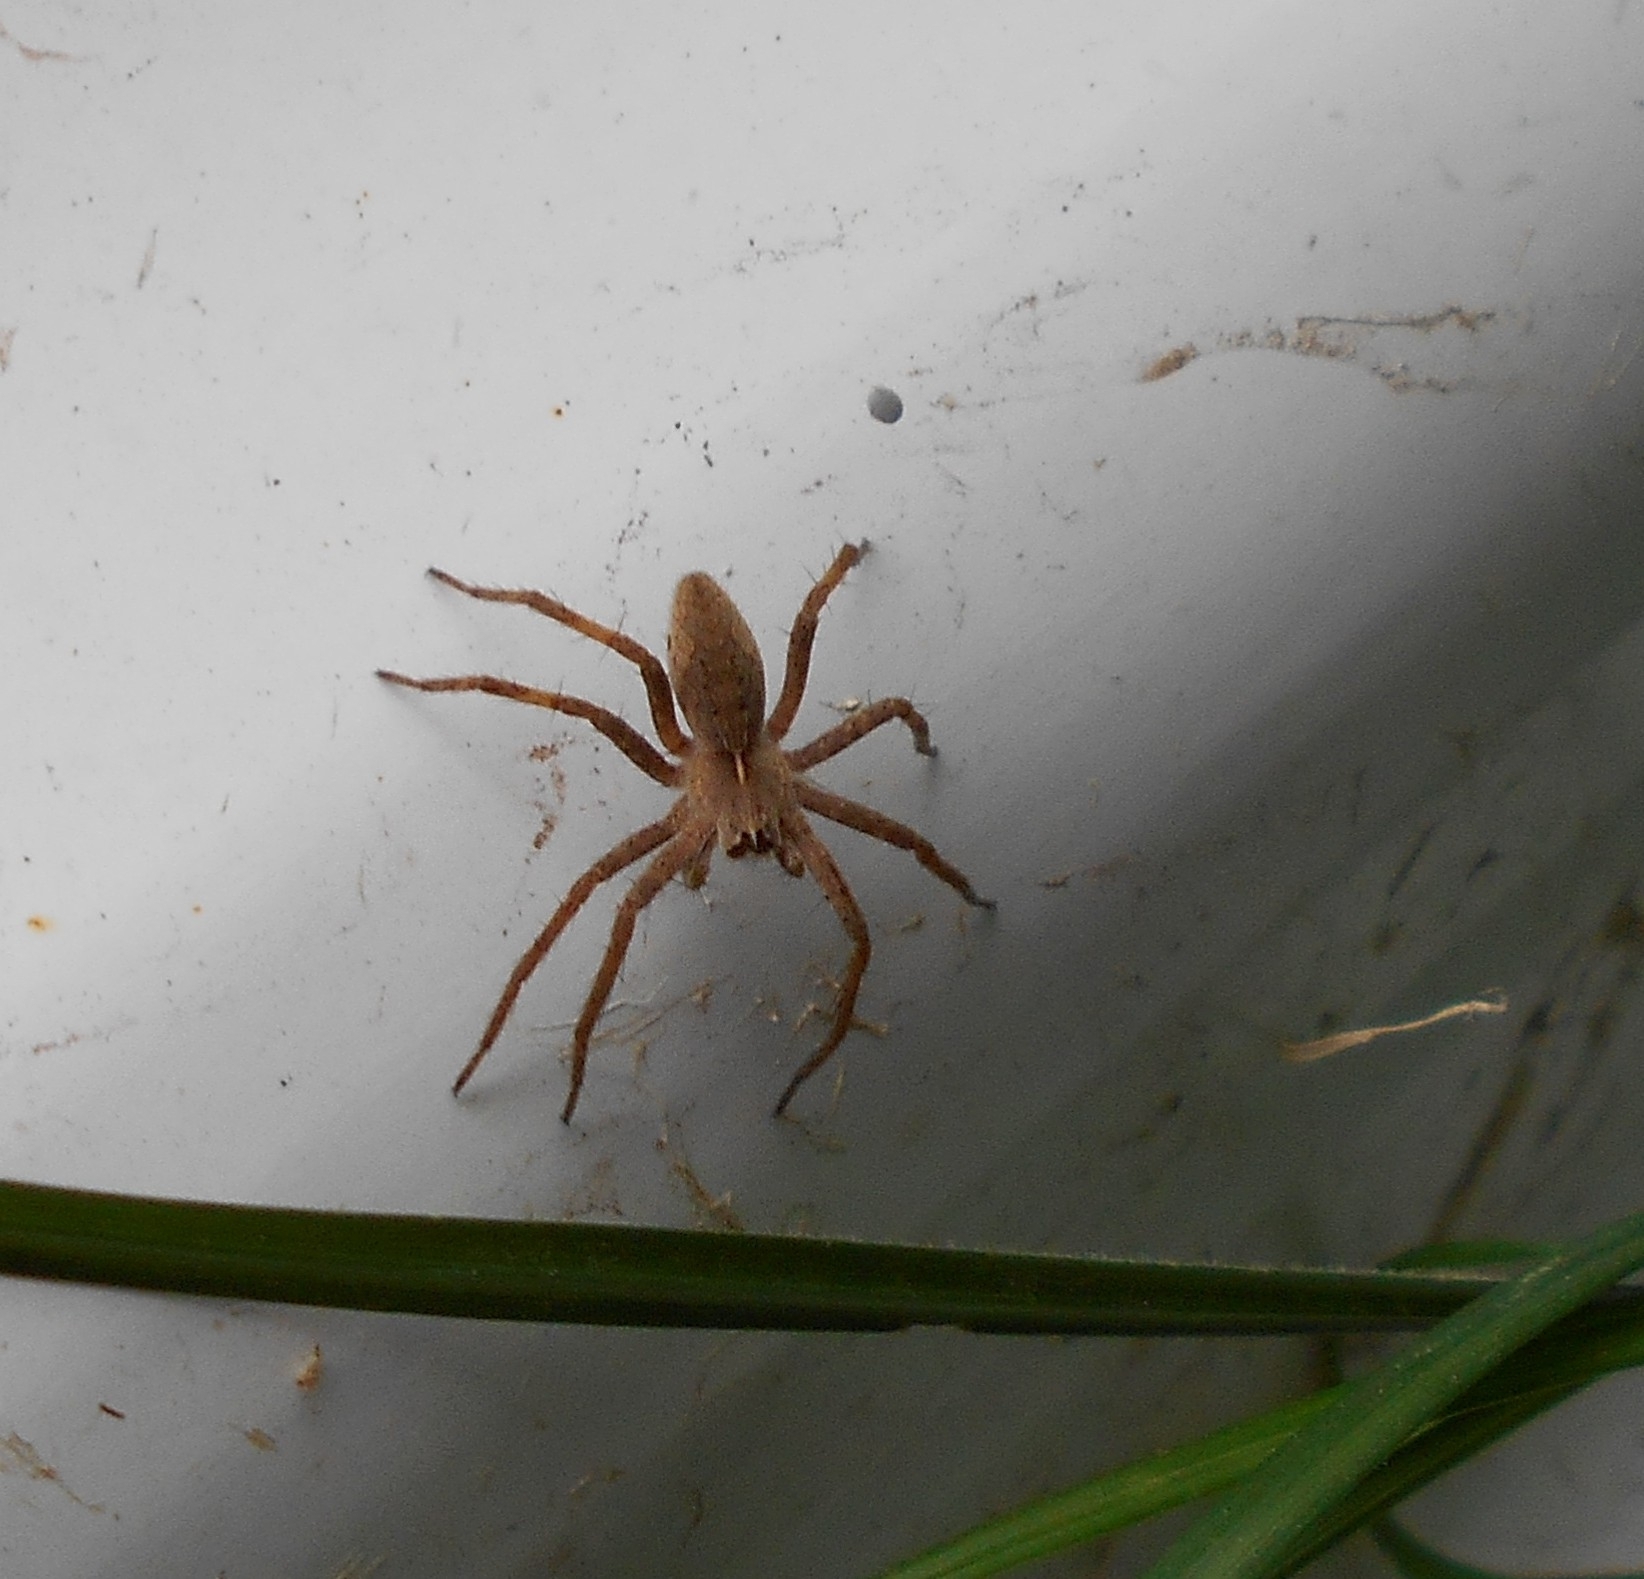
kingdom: Animalia
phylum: Arthropoda
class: Arachnida
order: Araneae
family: Pisauridae
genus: Pisaura
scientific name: Pisaura
